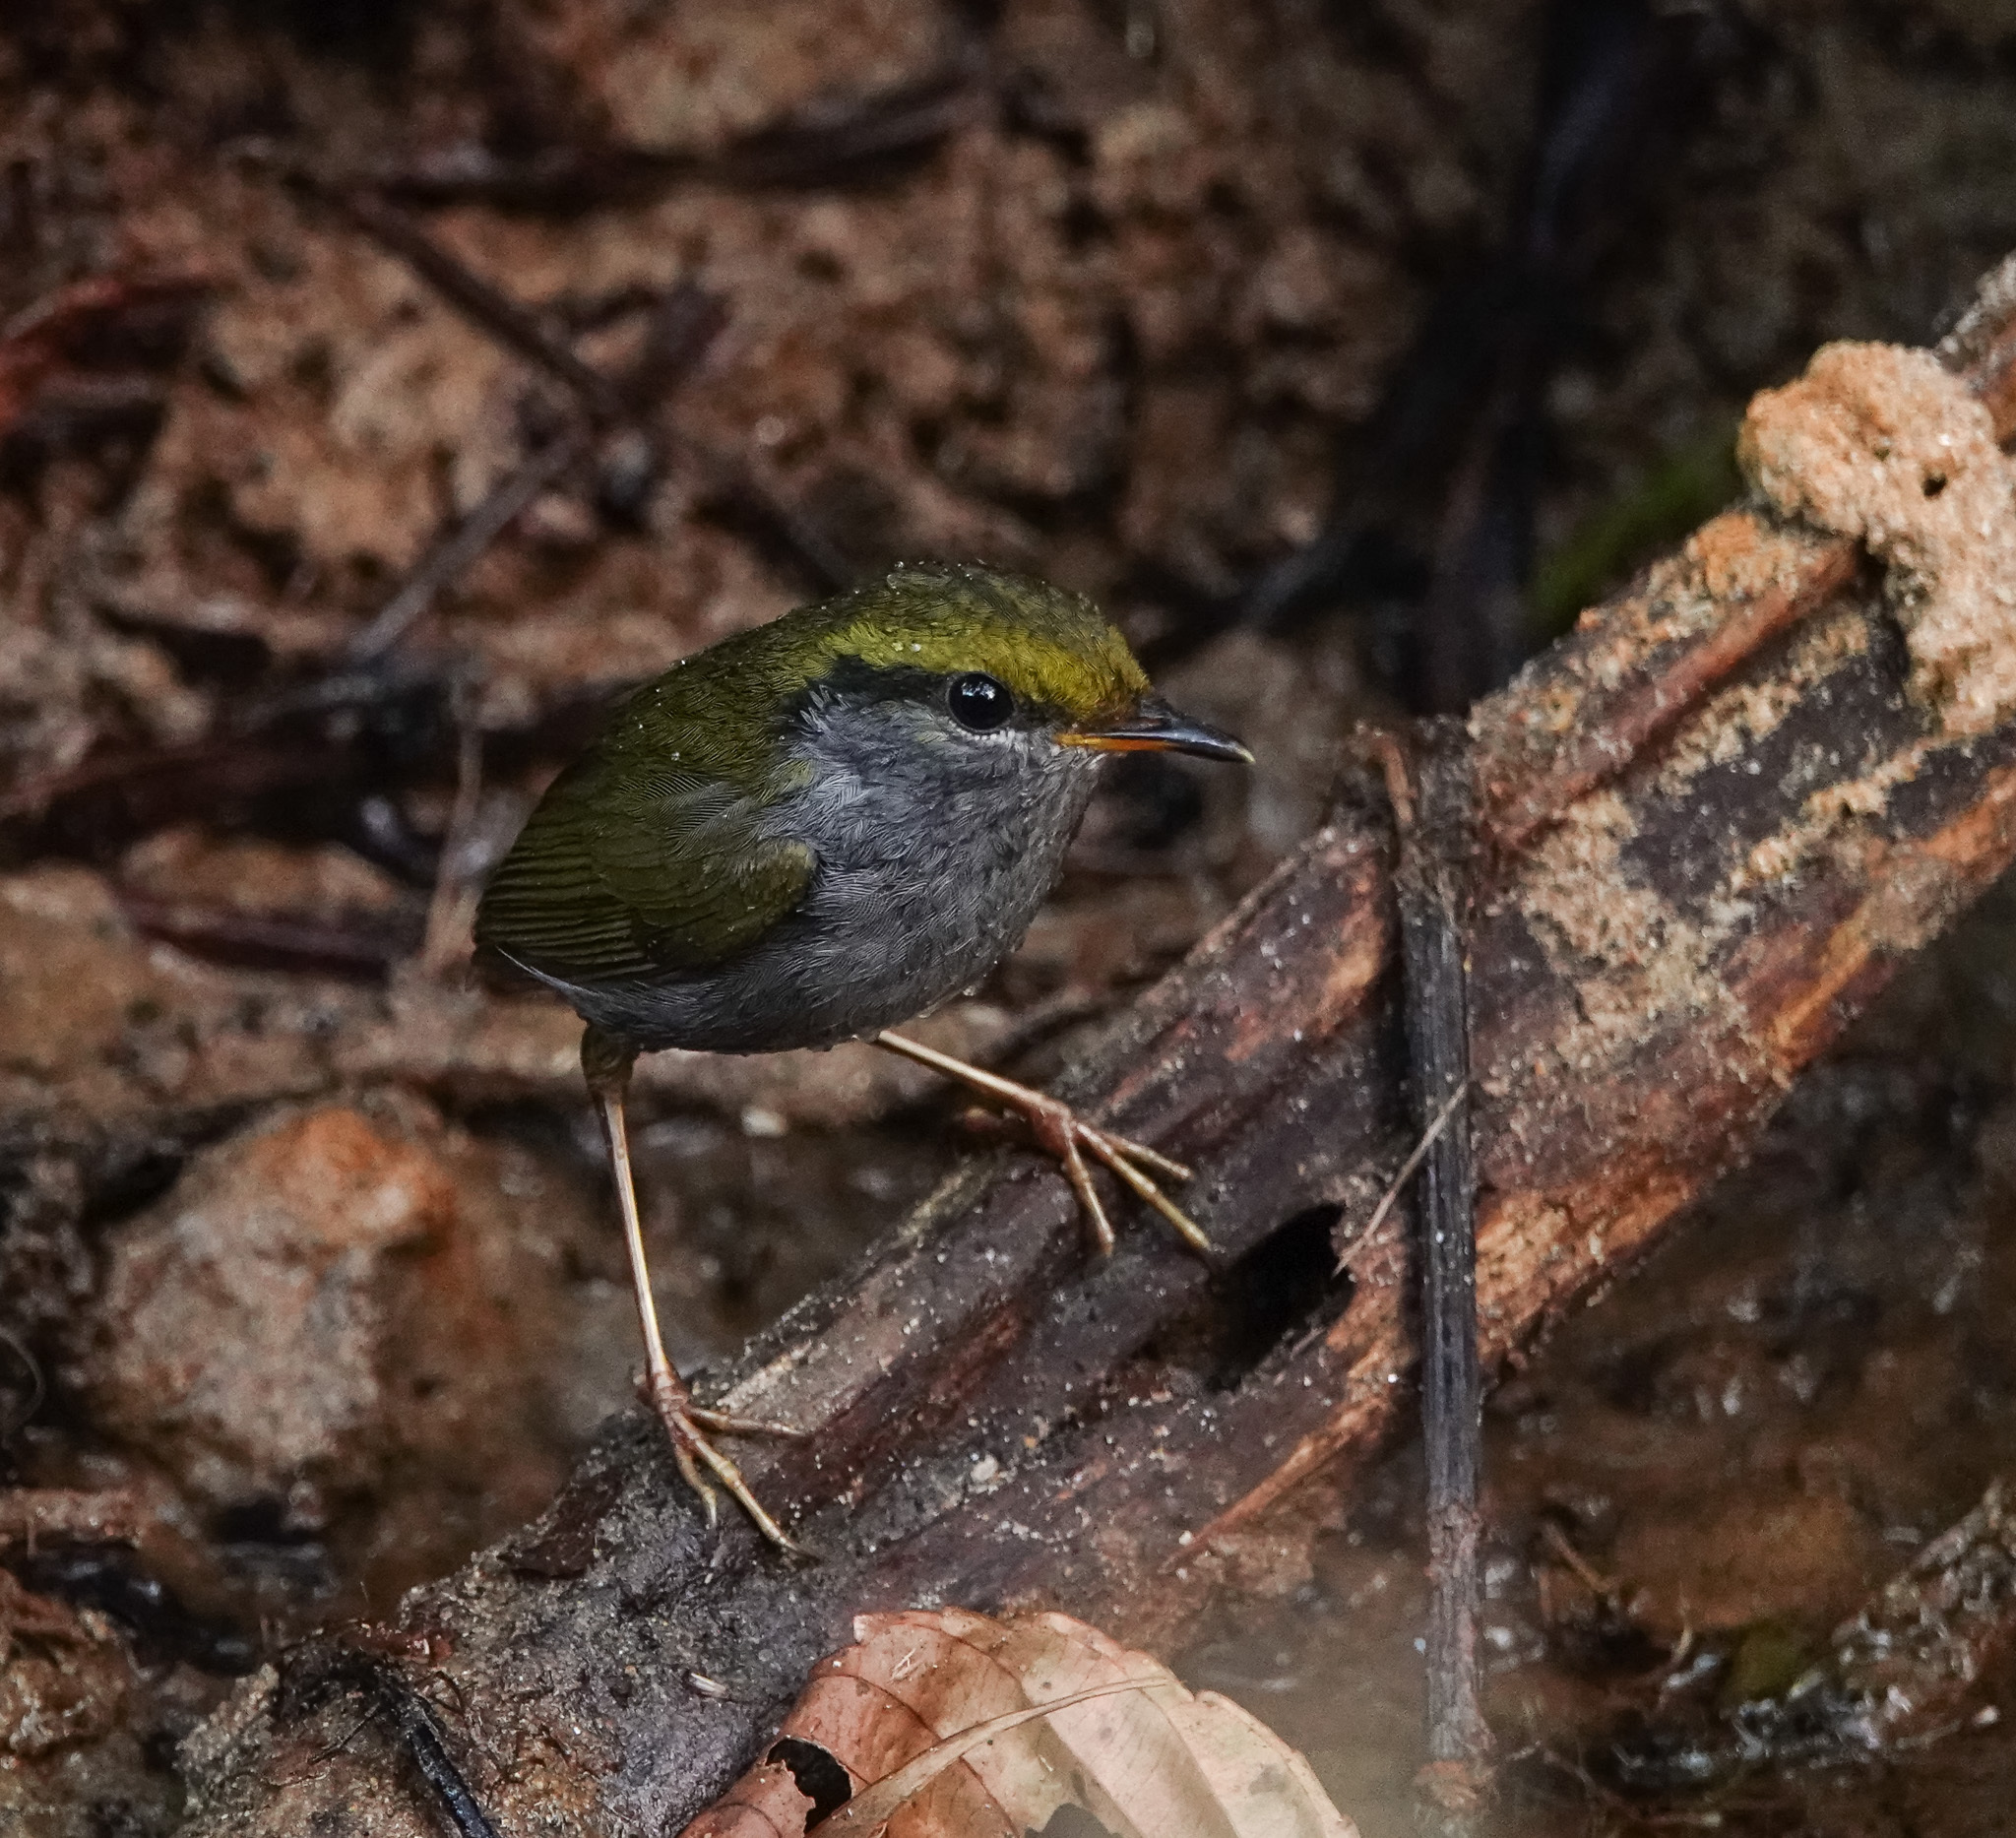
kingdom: Animalia
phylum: Chordata
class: Aves
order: Passeriformes
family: Cettiidae
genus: Tesia
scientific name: Tesia cyaniventer
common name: Grey-bellied tesia
